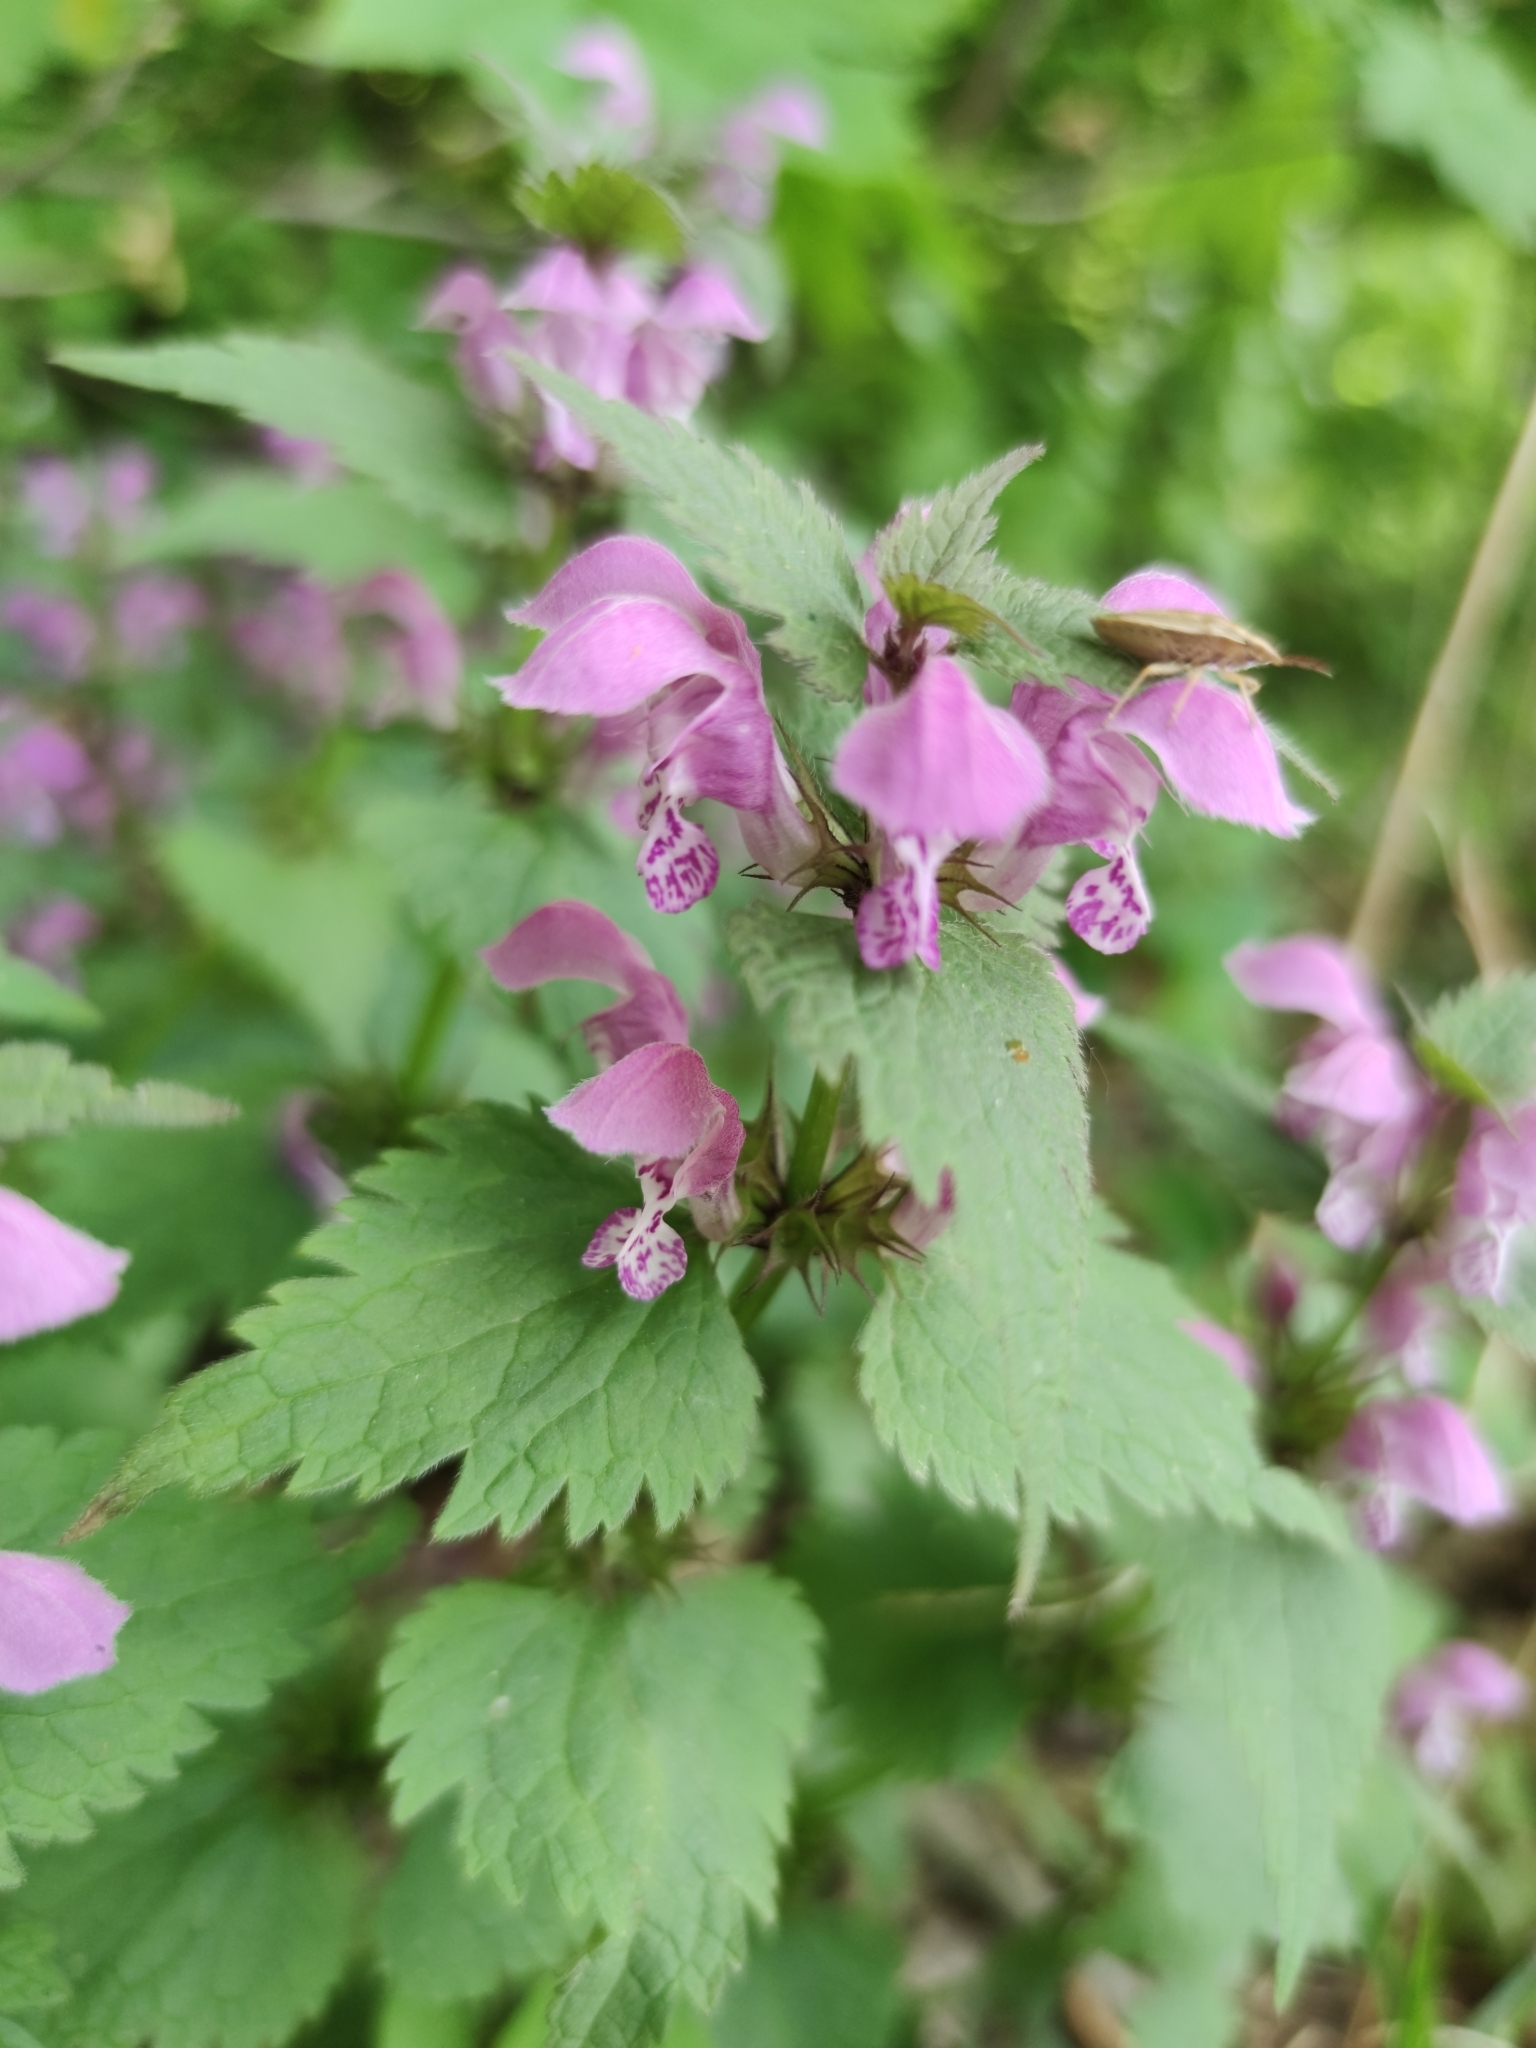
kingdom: Plantae
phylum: Tracheophyta
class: Magnoliopsida
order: Lamiales
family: Lamiaceae
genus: Lamium
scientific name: Lamium maculatum
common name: Spotted dead-nettle
